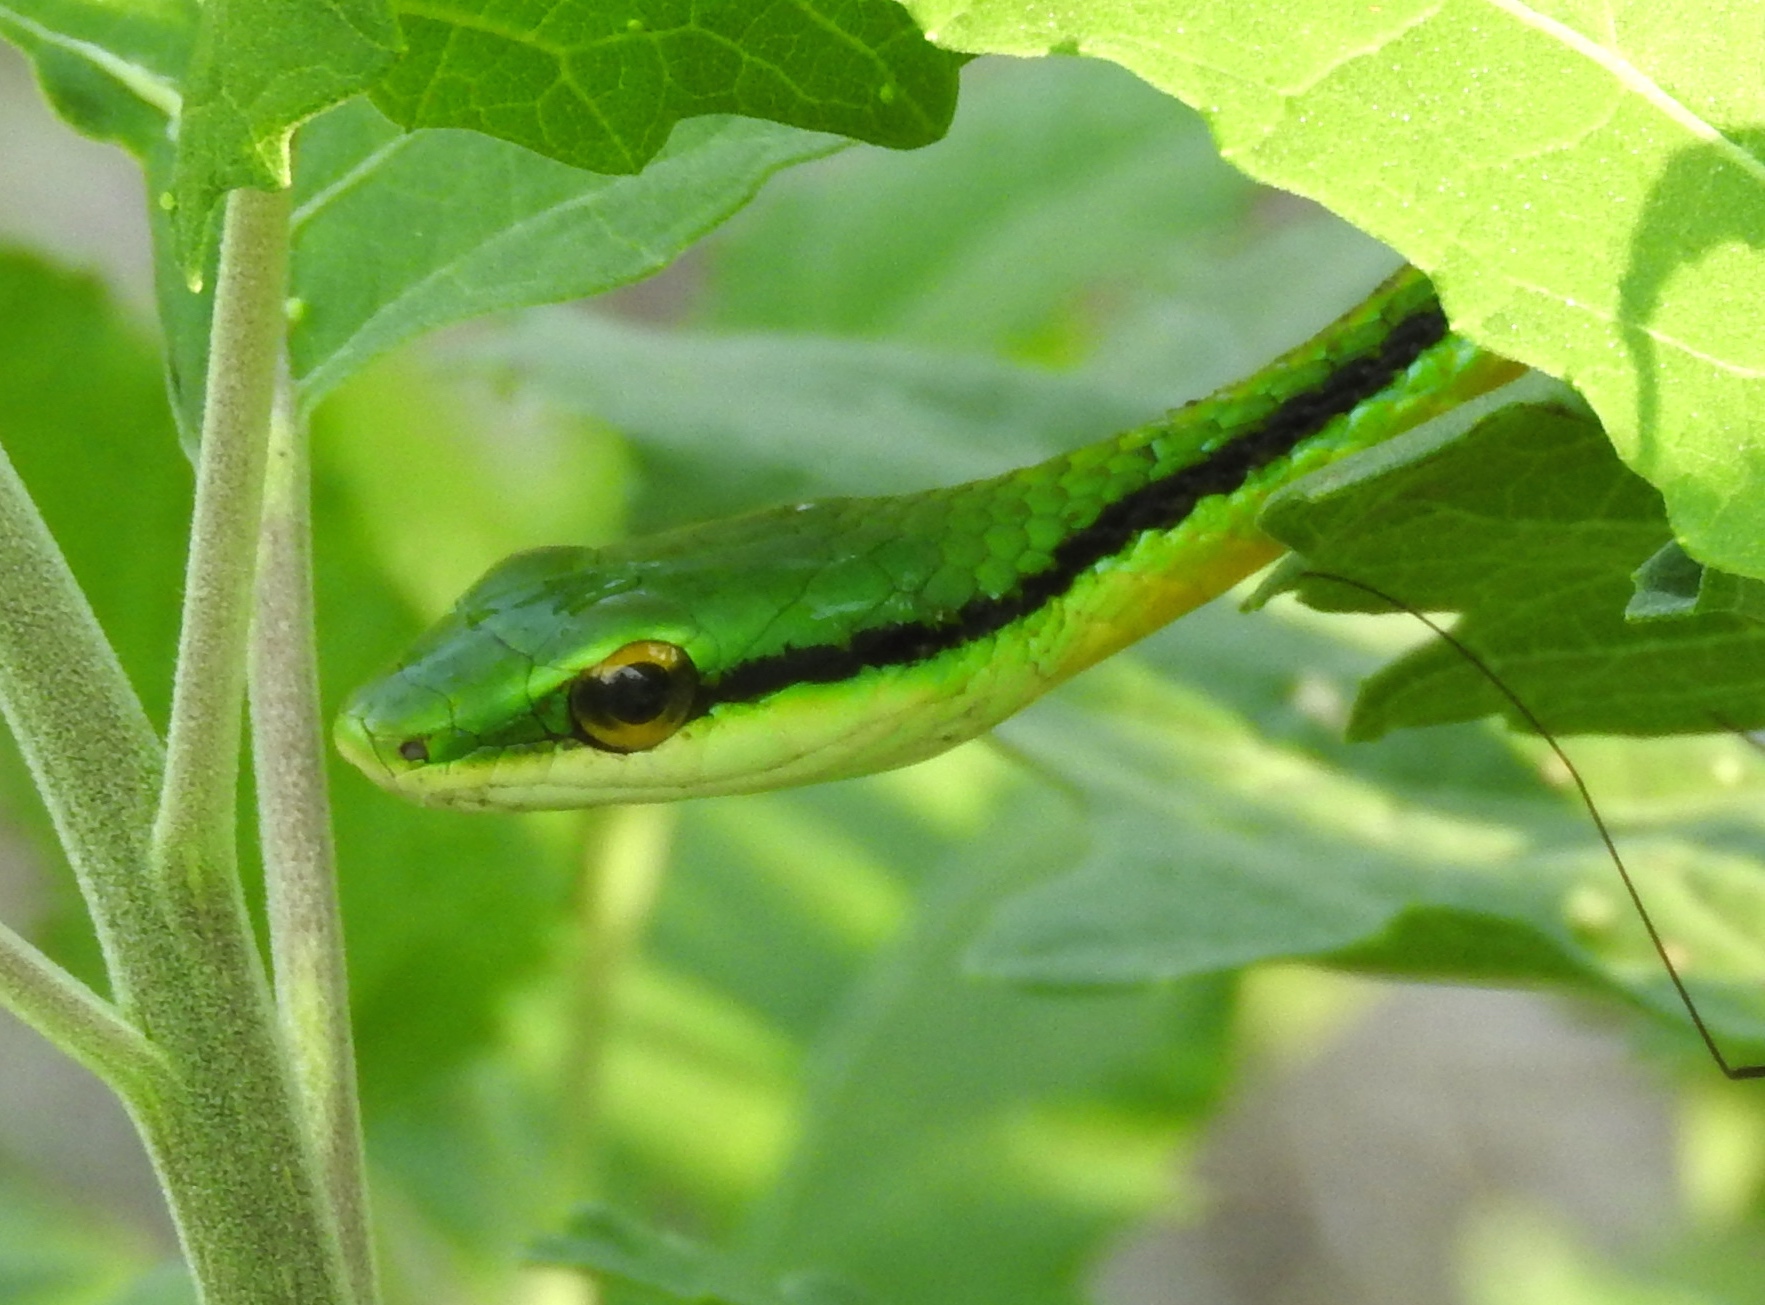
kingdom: Animalia
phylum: Chordata
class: Squamata
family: Colubridae
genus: Leptophis
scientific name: Leptophis diplotropis
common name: Pacific coast parrot snake
